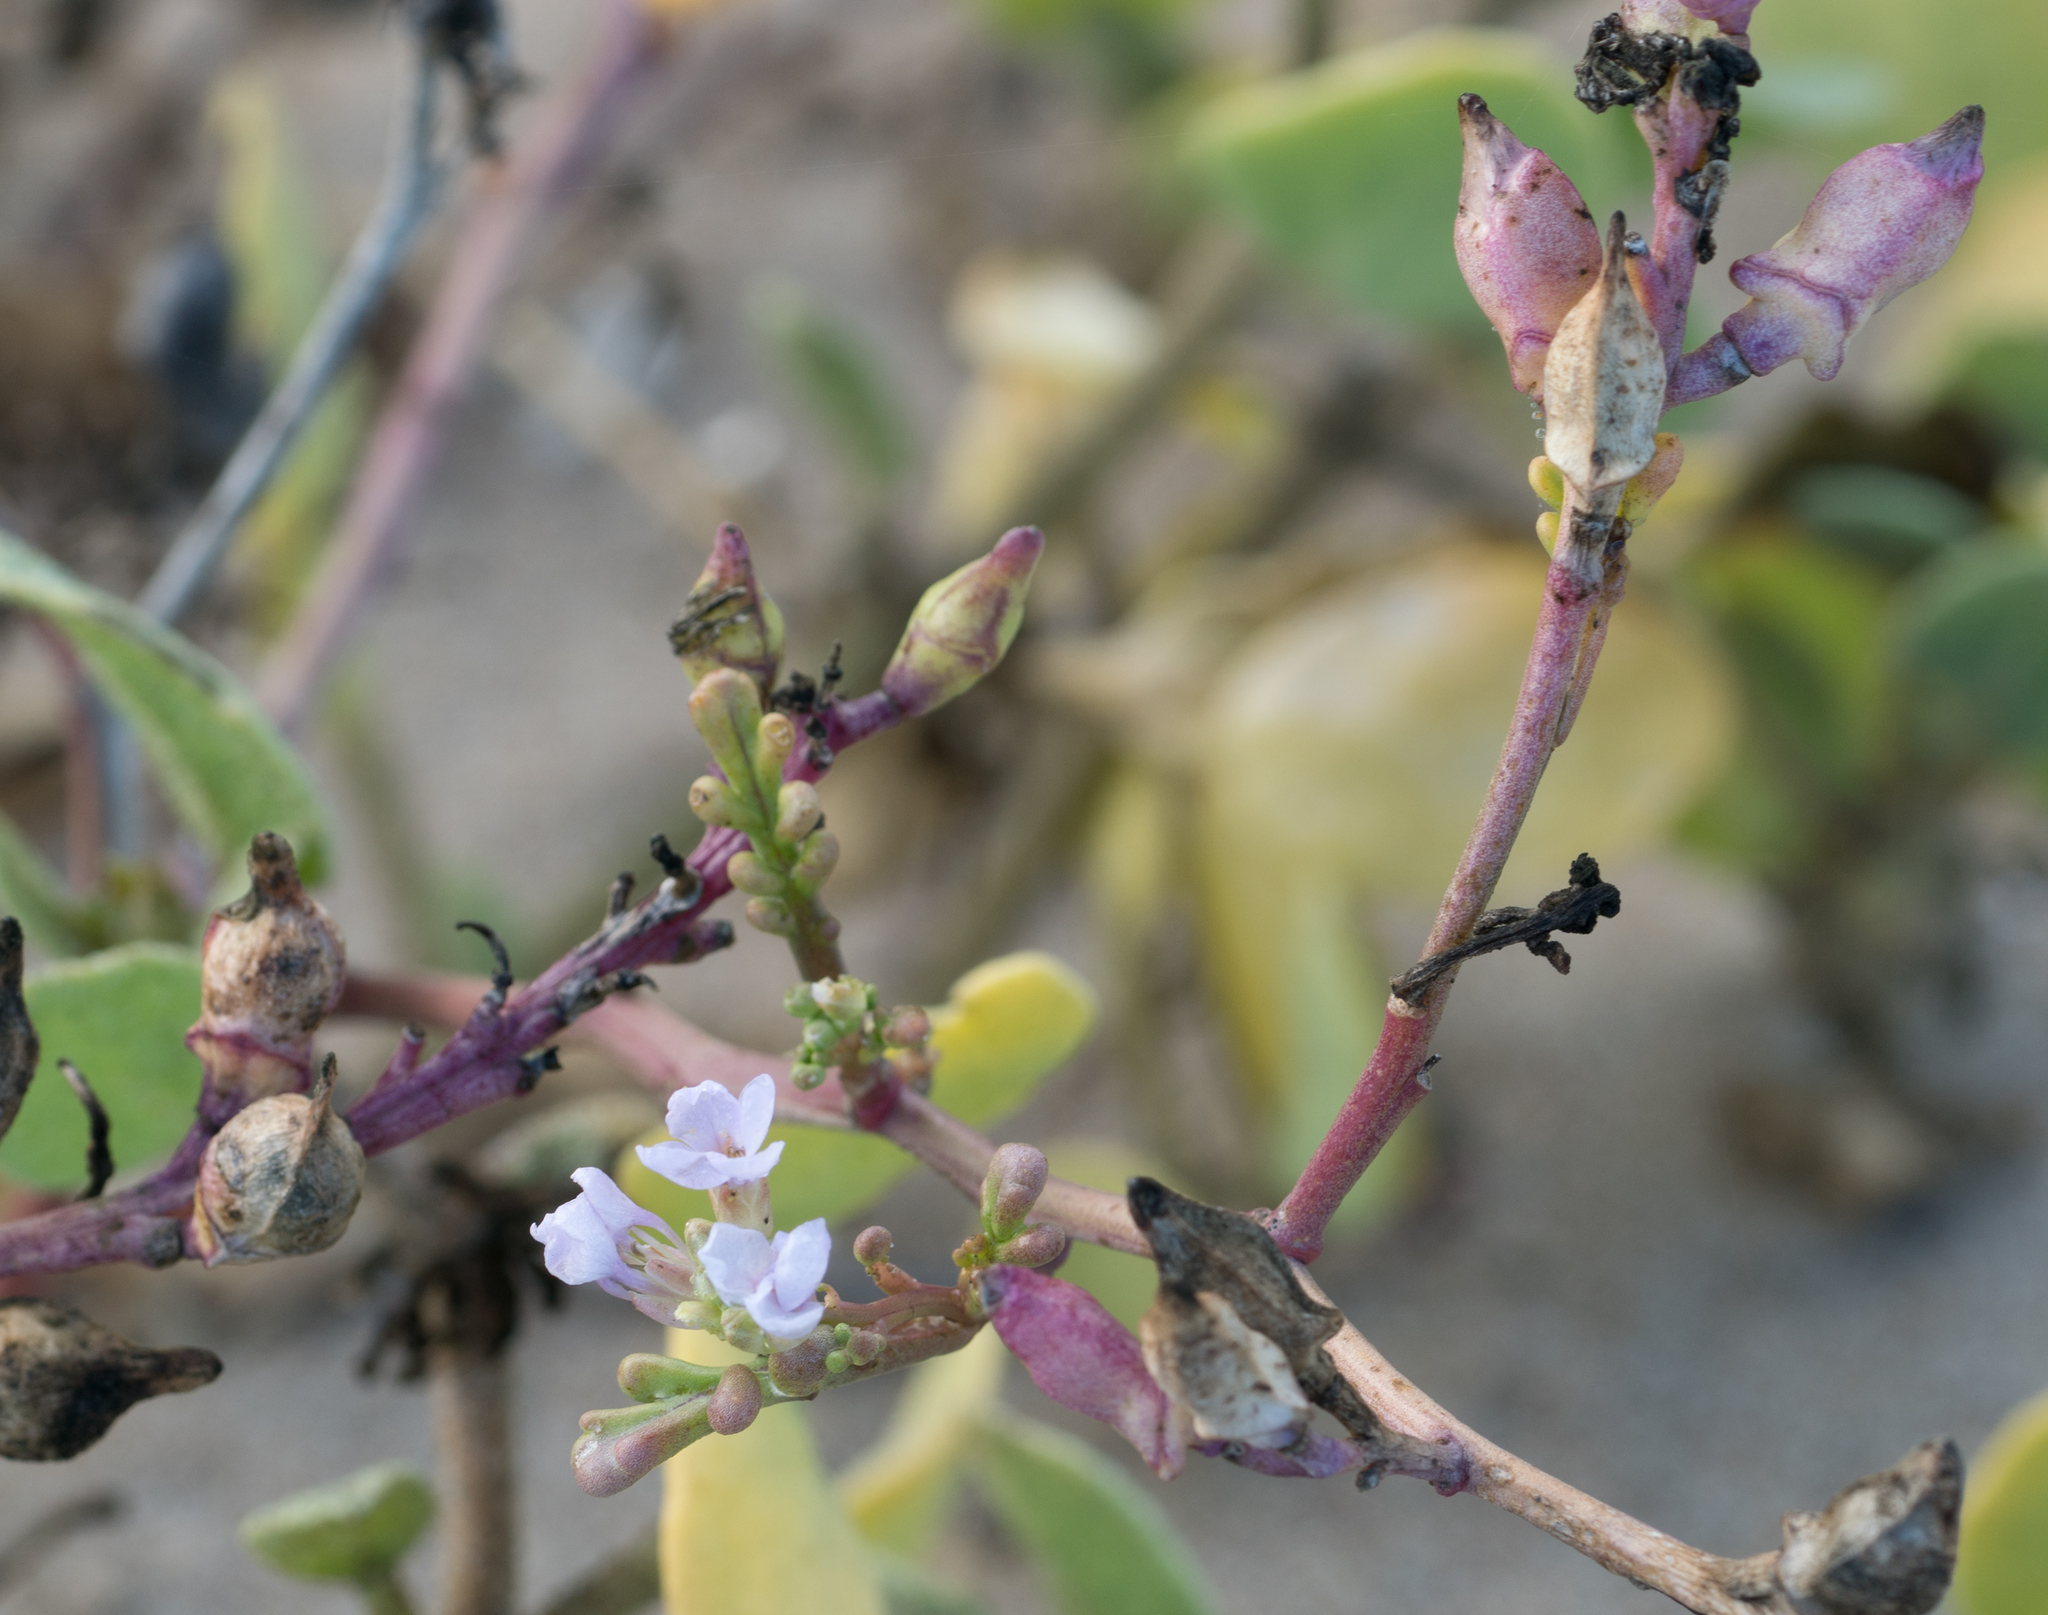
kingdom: Plantae
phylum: Tracheophyta
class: Magnoliopsida
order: Brassicales
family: Brassicaceae
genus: Cakile
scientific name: Cakile maritima
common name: Sea rocket
